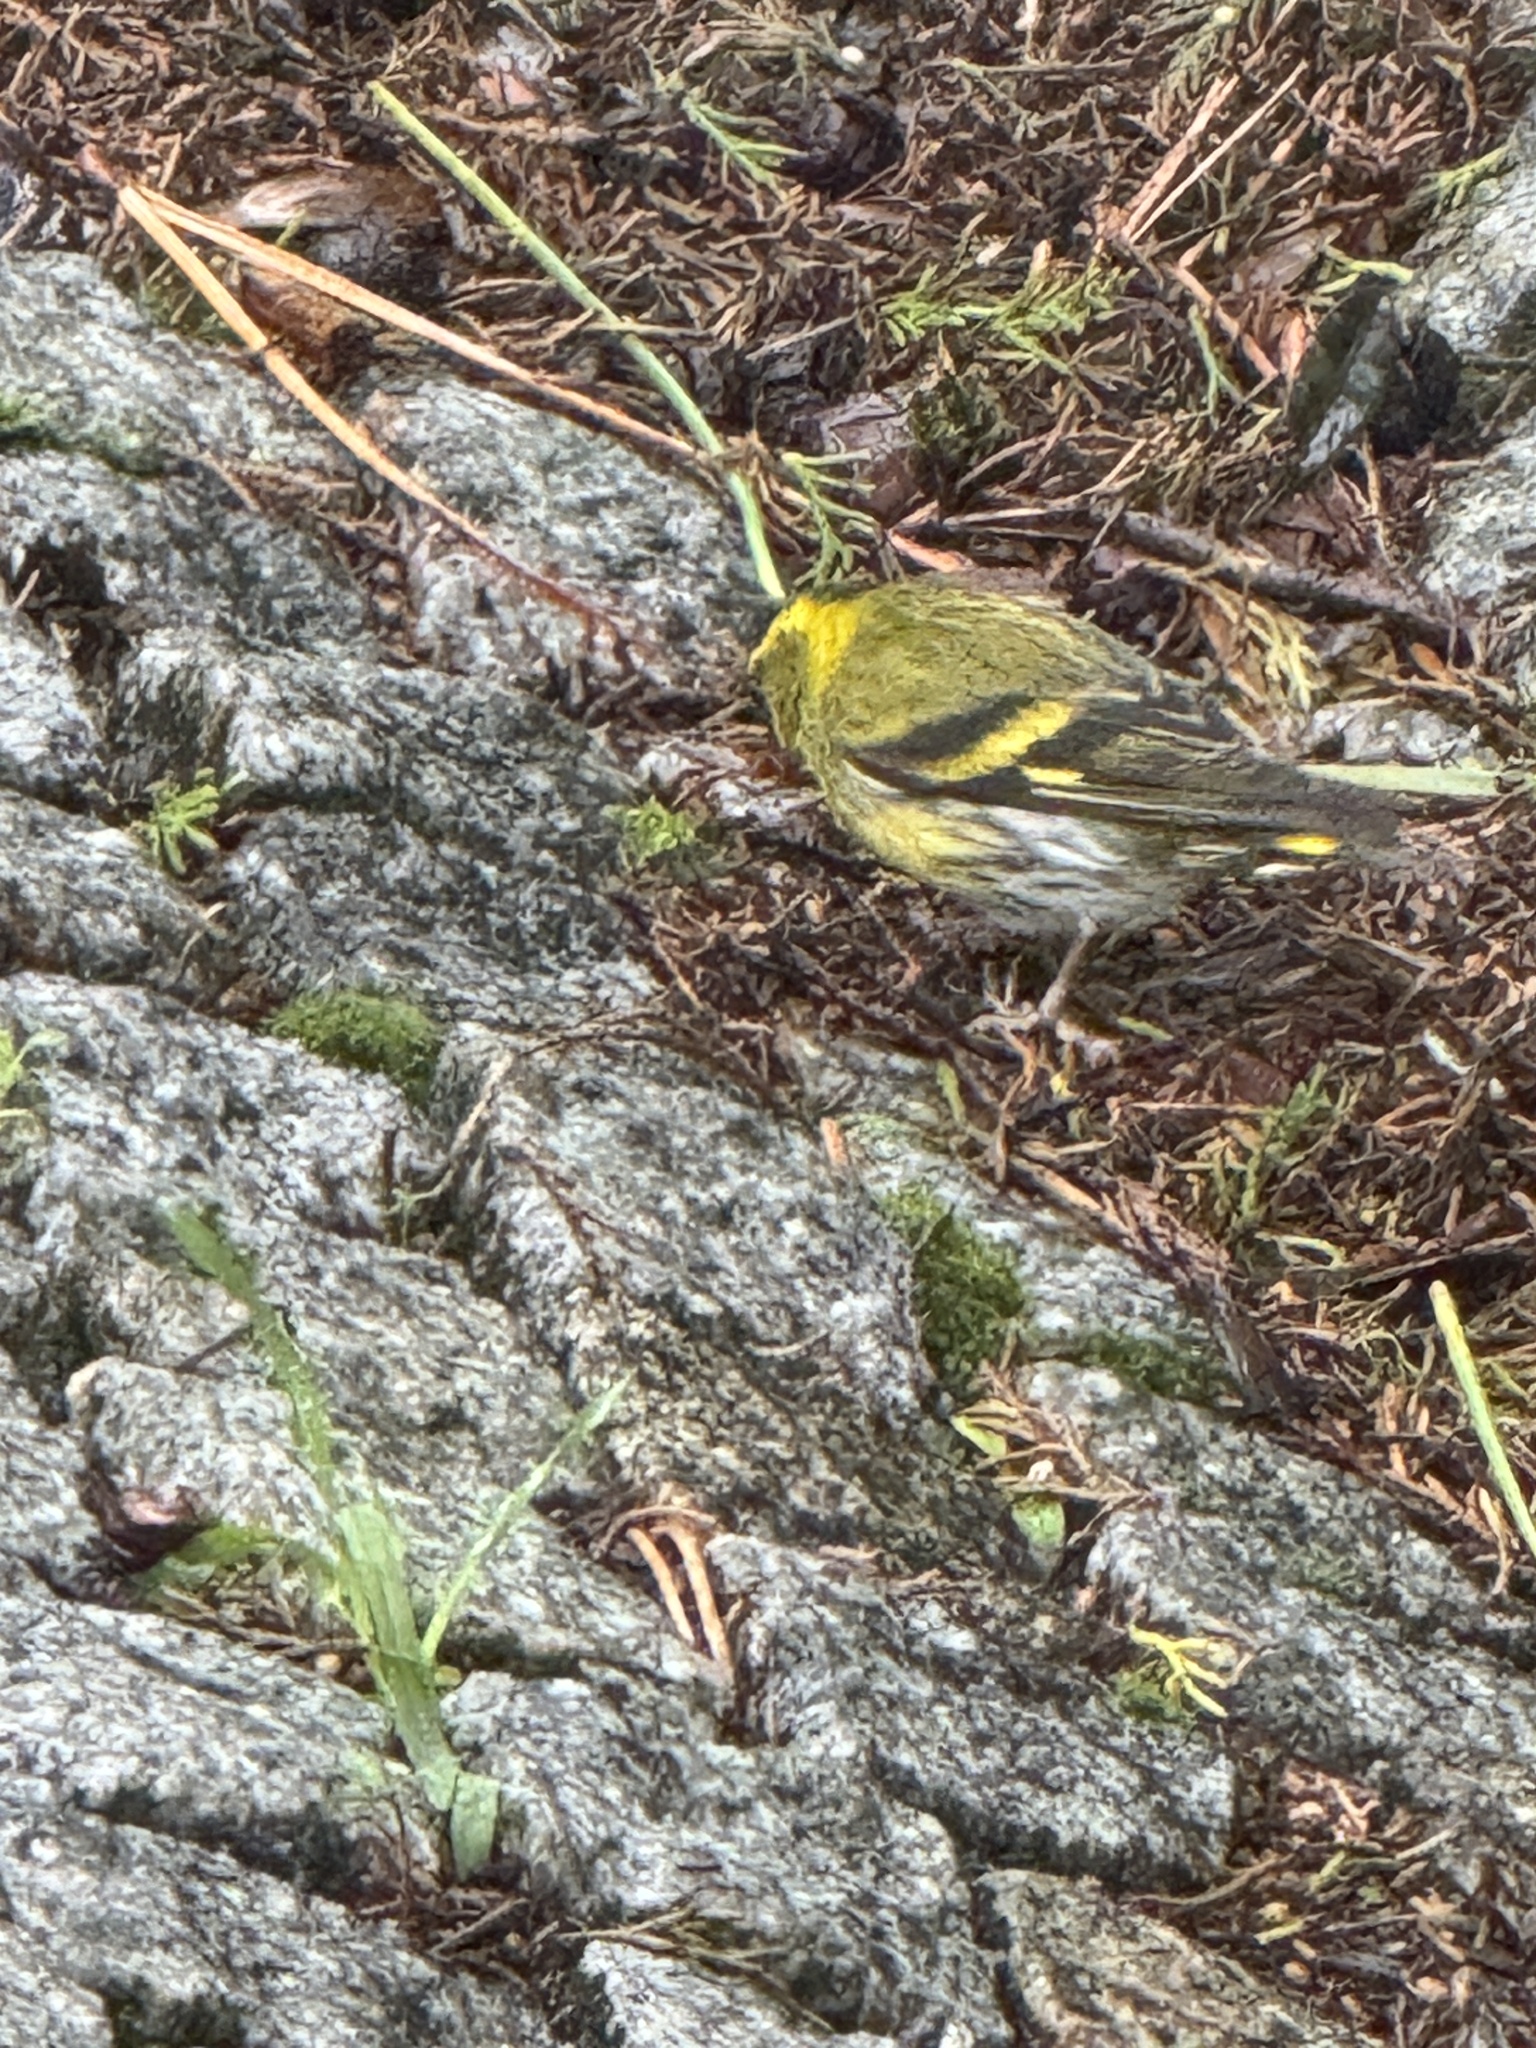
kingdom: Animalia
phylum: Chordata
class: Aves
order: Passeriformes
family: Fringillidae
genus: Spinus
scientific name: Spinus spinus
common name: Eurasian siskin
